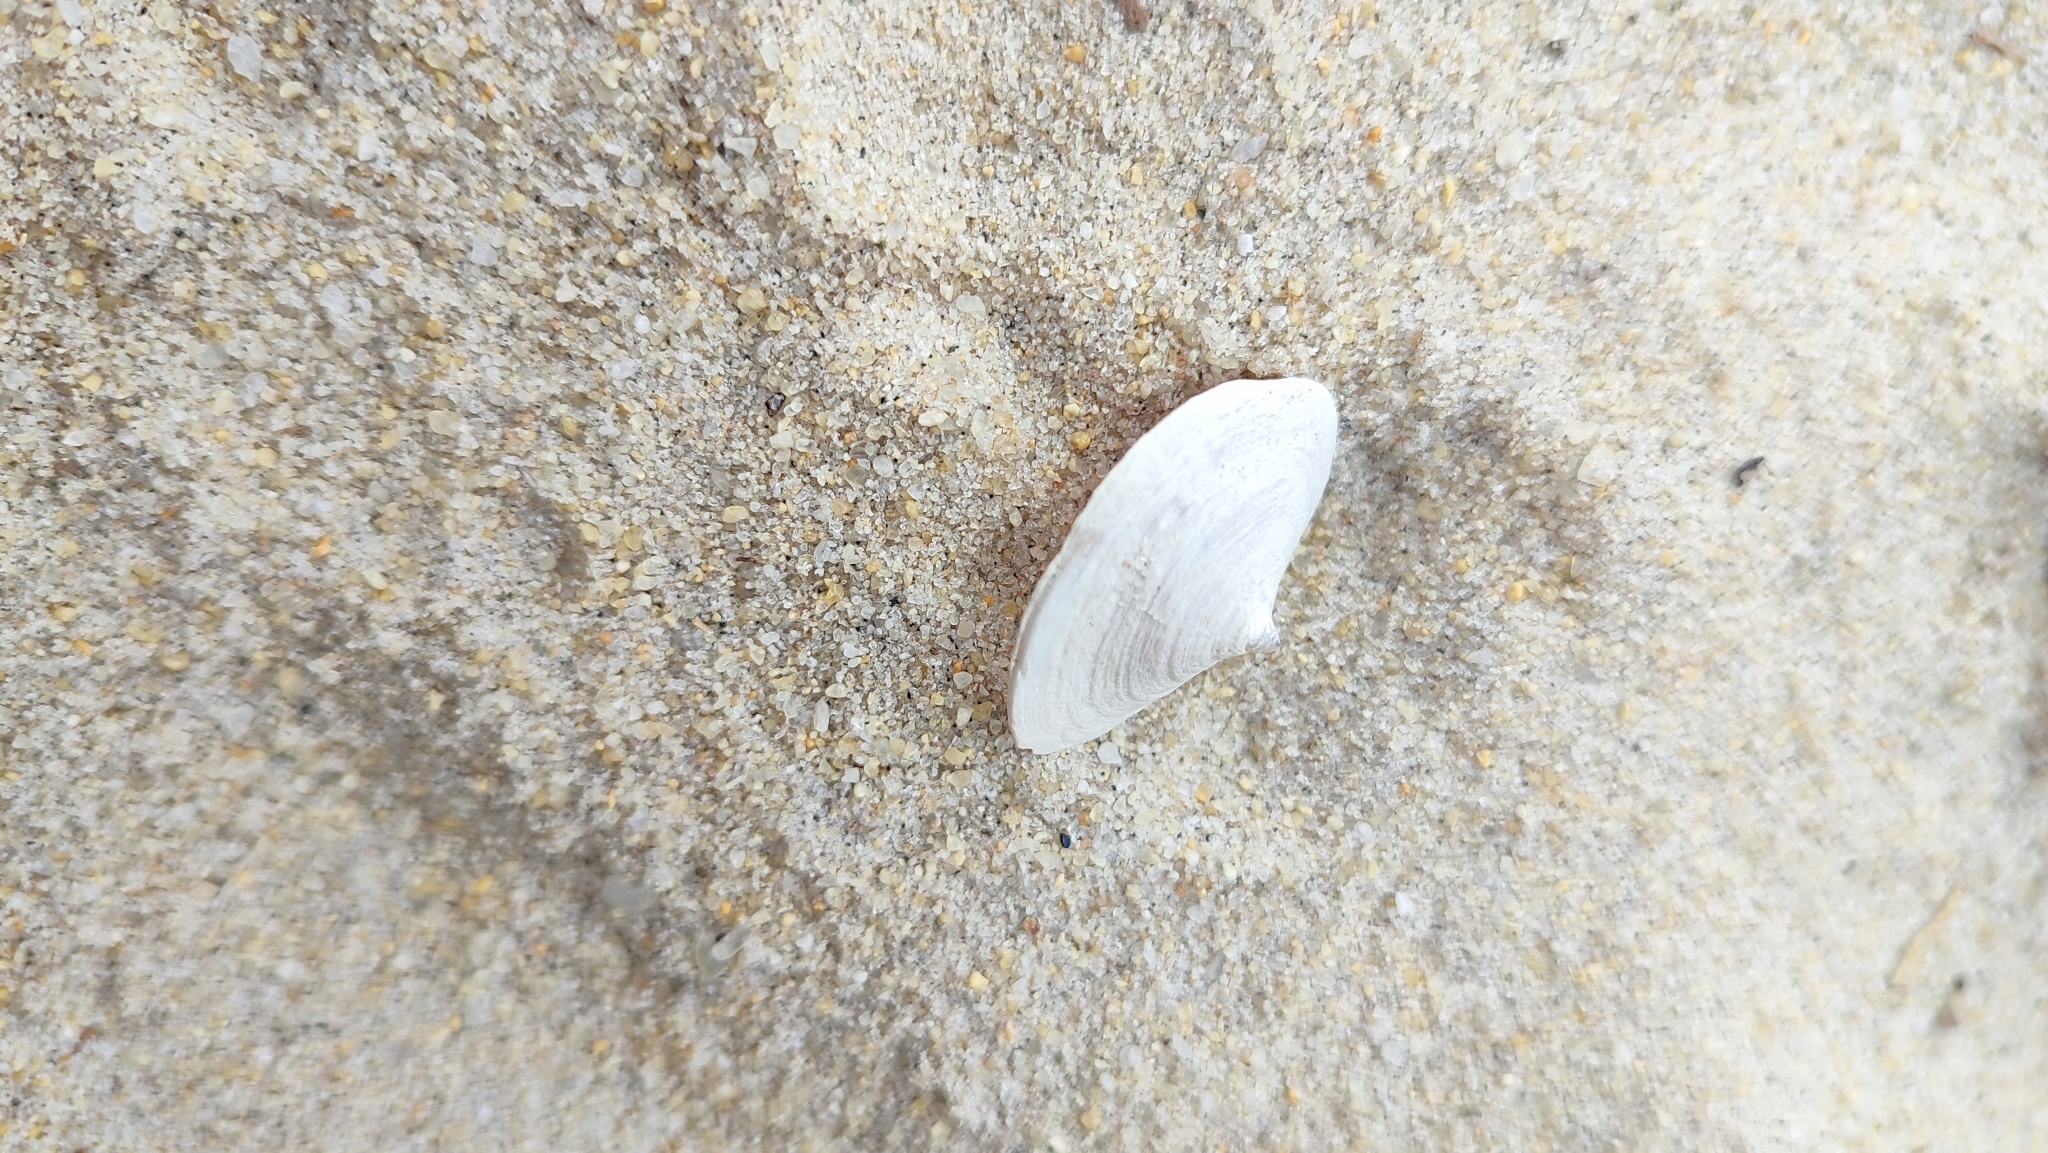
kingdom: Animalia
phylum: Mollusca
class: Gastropoda
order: Littorinimorpha
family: Calyptraeidae
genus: Desmaulus
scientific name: Desmaulus extinctorium
